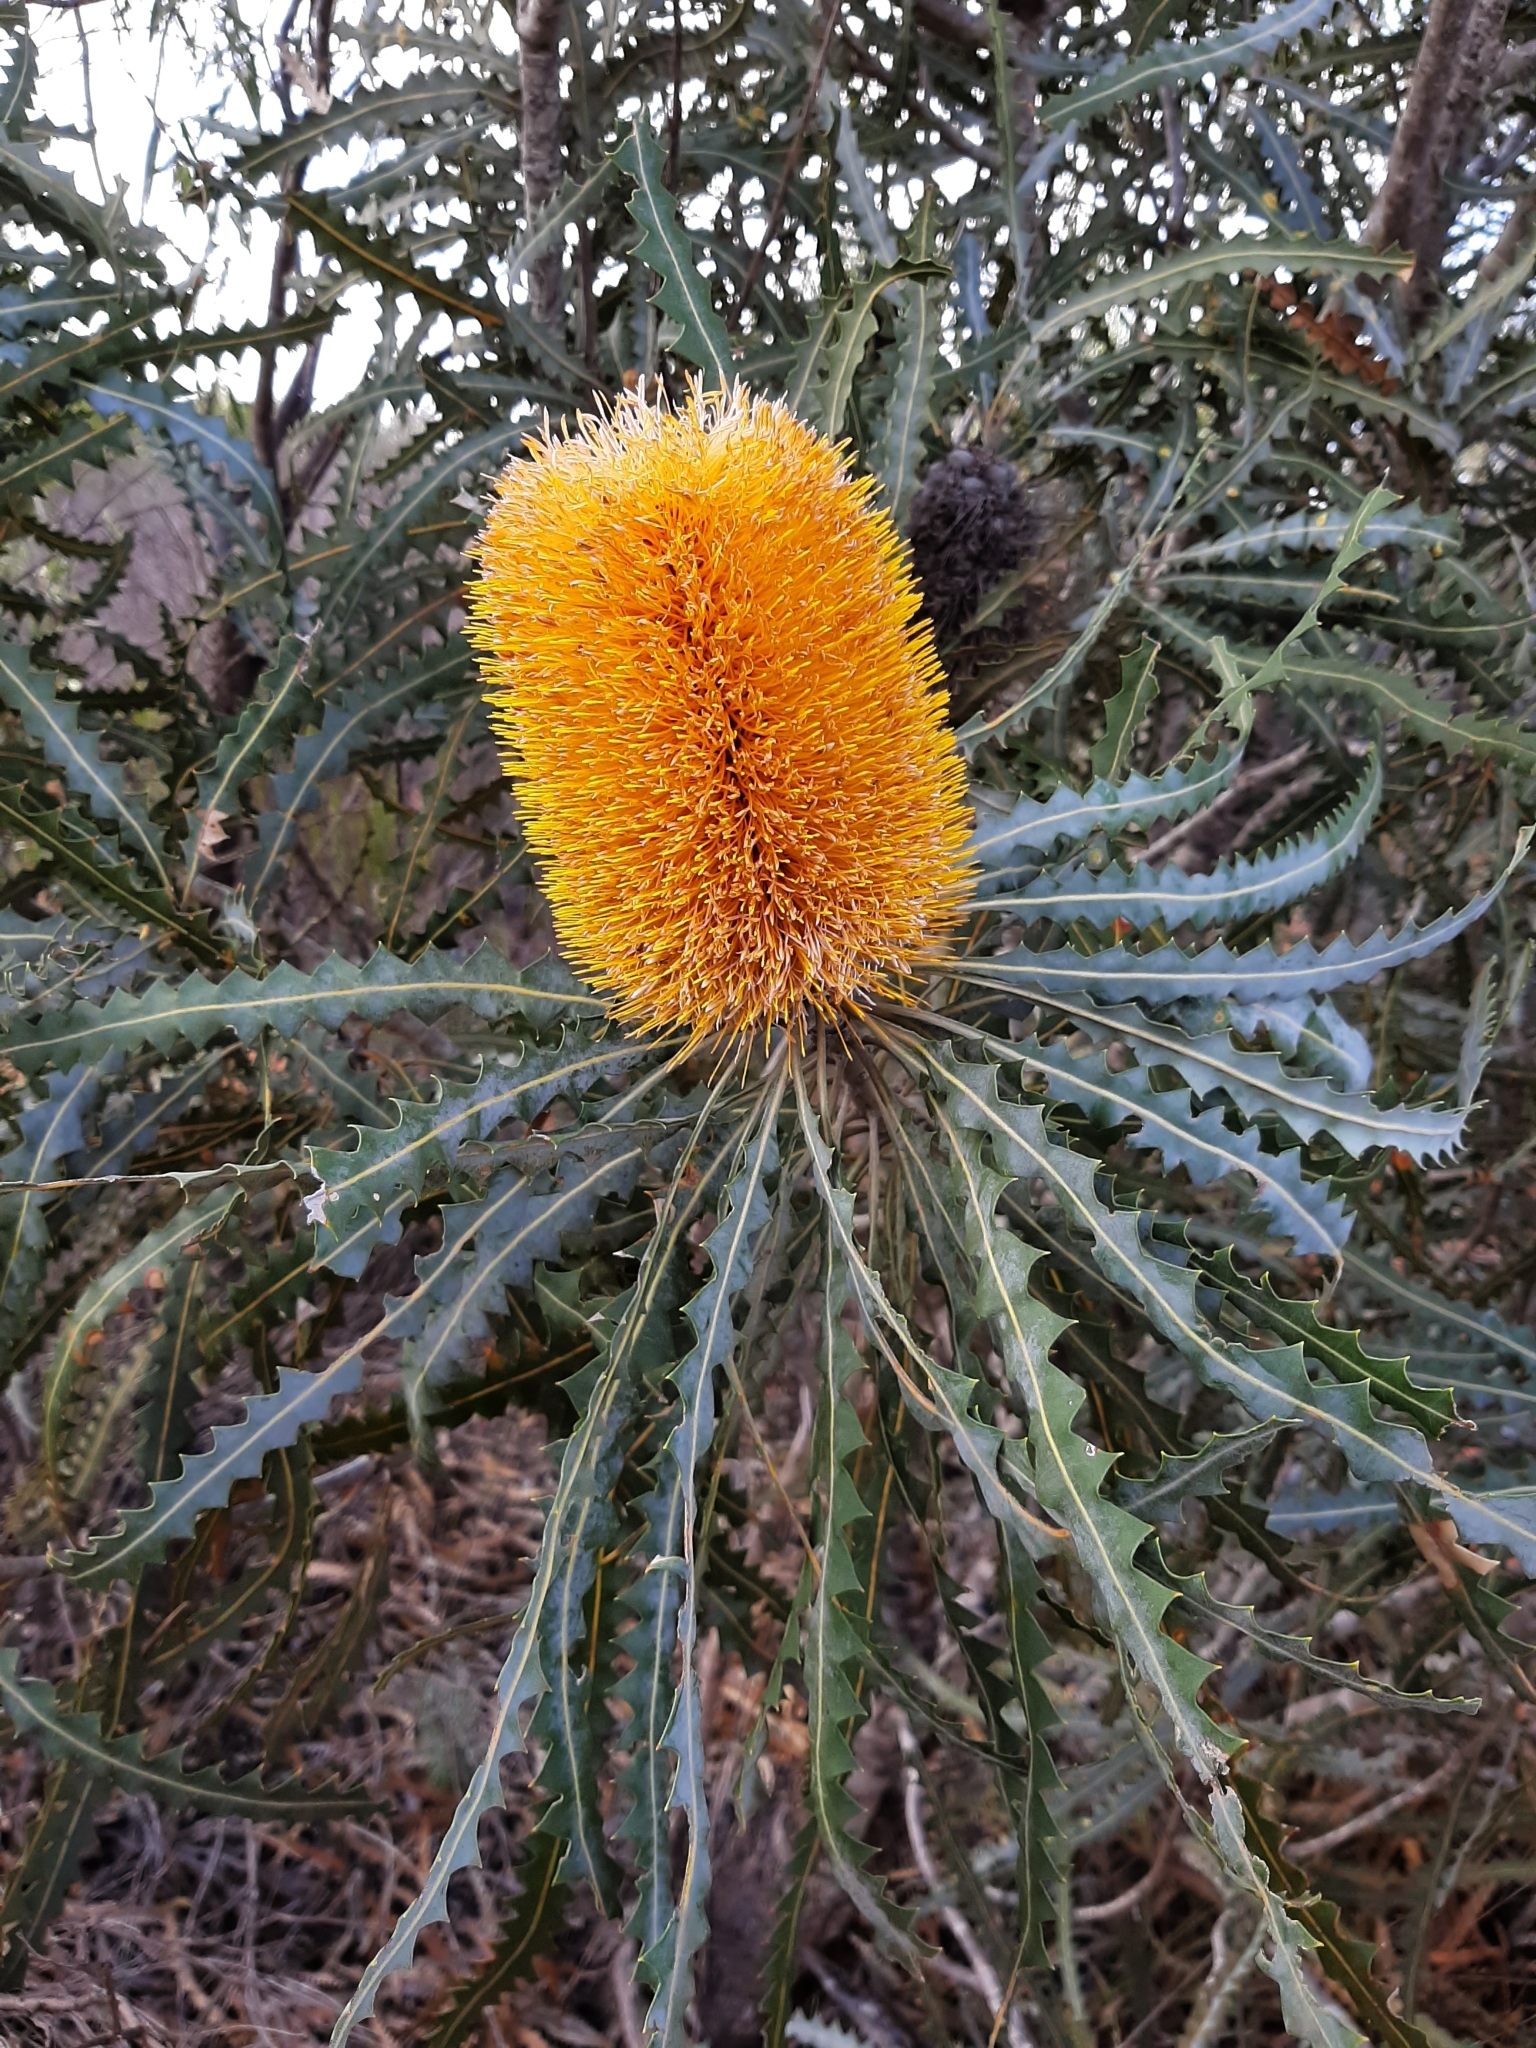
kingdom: Plantae
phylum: Tracheophyta
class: Magnoliopsida
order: Proteales
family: Proteaceae
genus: Banksia
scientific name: Banksia ashbyi
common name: Ashby's banksia
